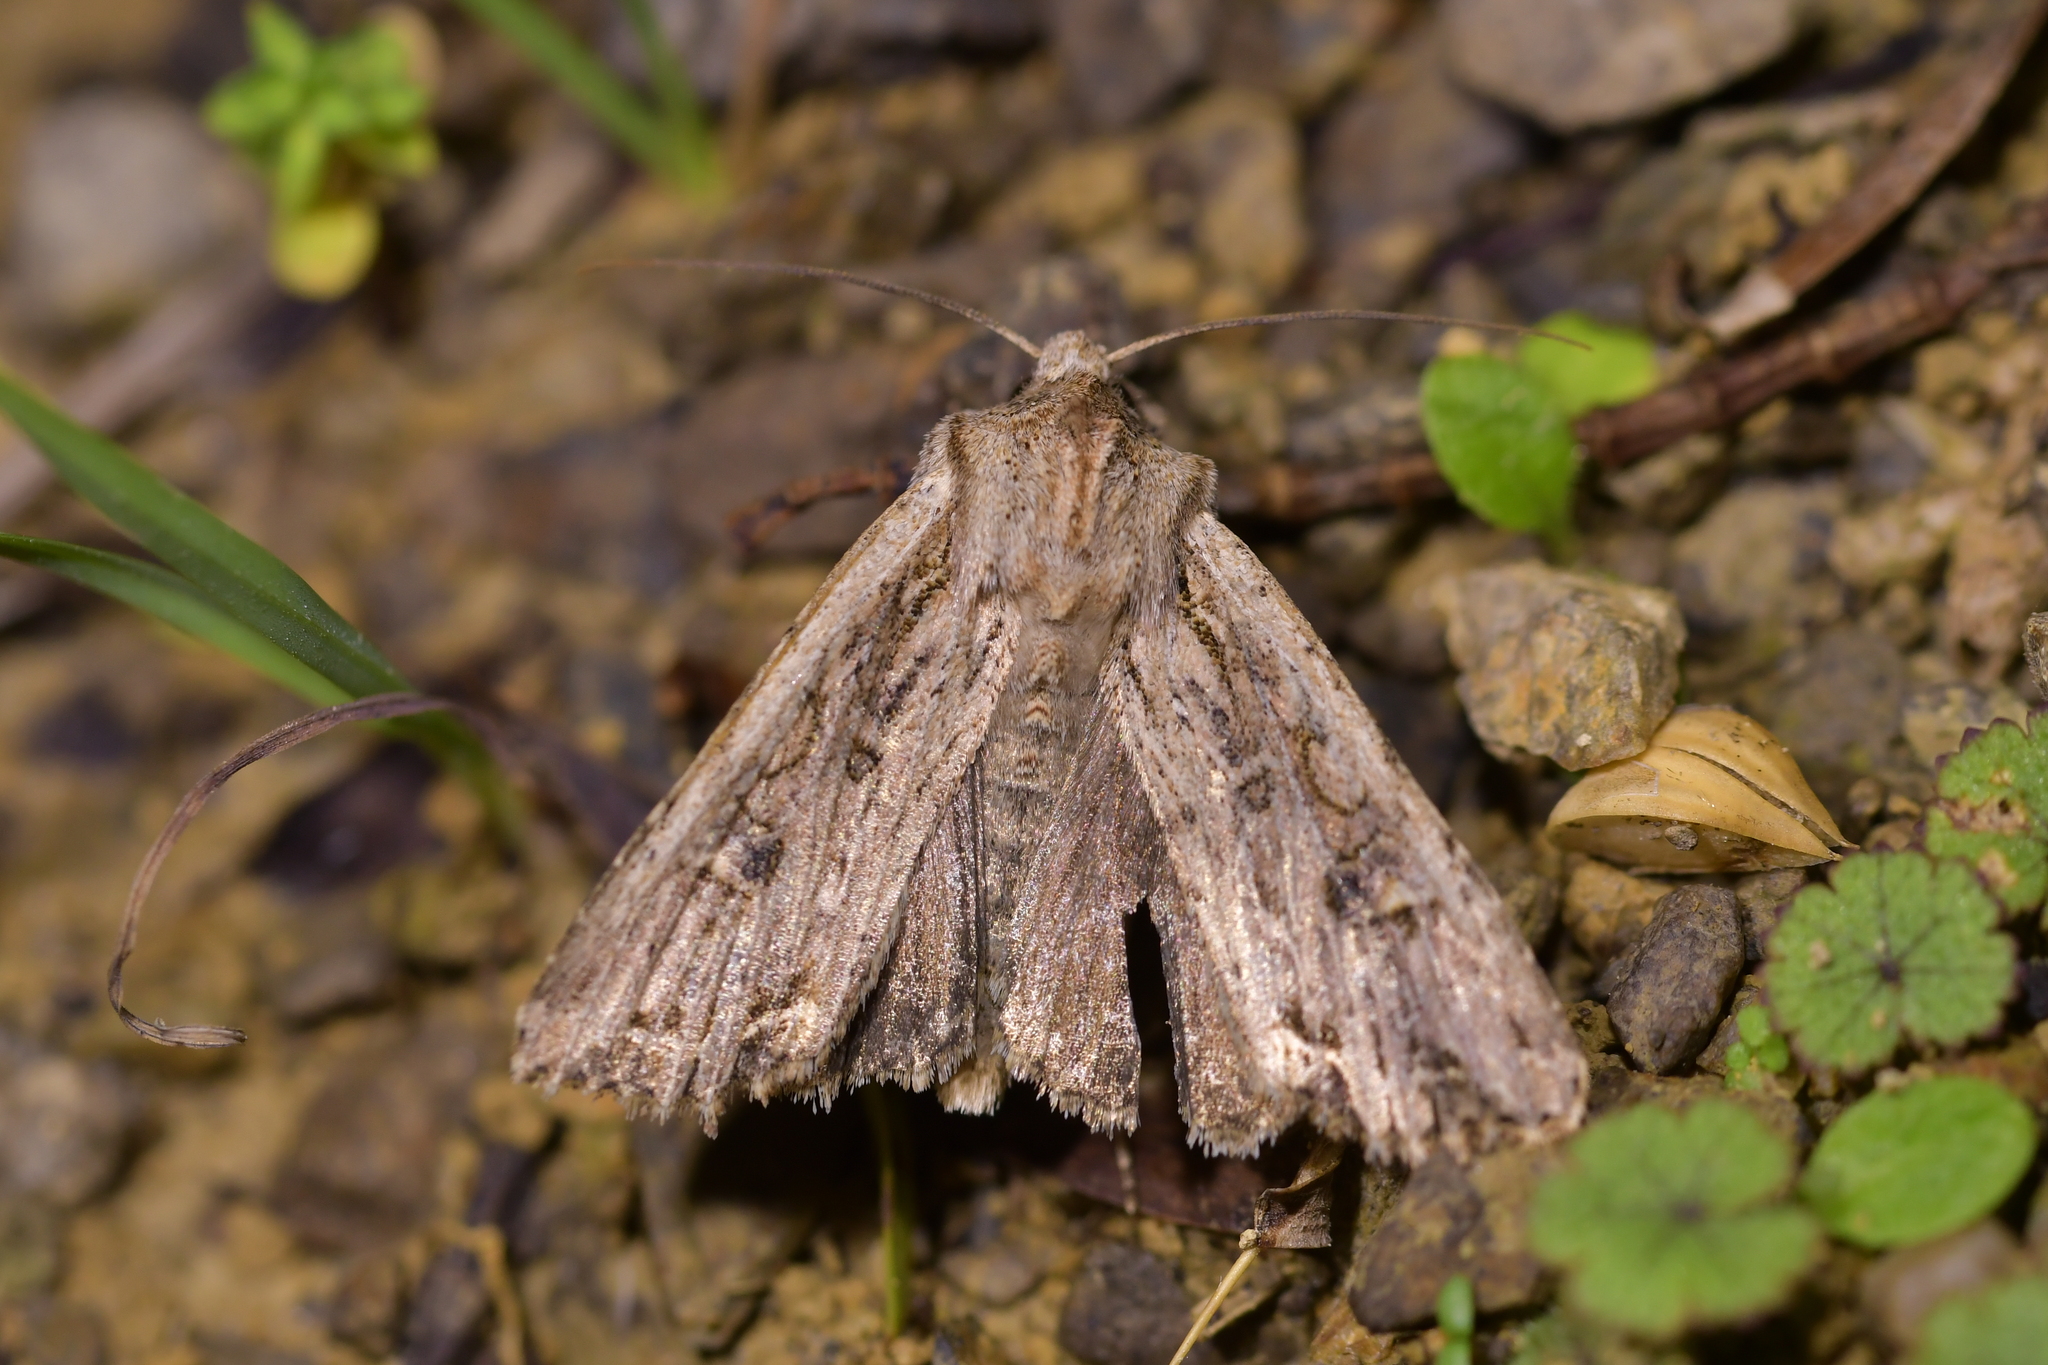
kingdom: Animalia
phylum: Arthropoda
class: Insecta
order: Lepidoptera
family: Noctuidae
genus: Ichneutica
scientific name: Ichneutica lignana
